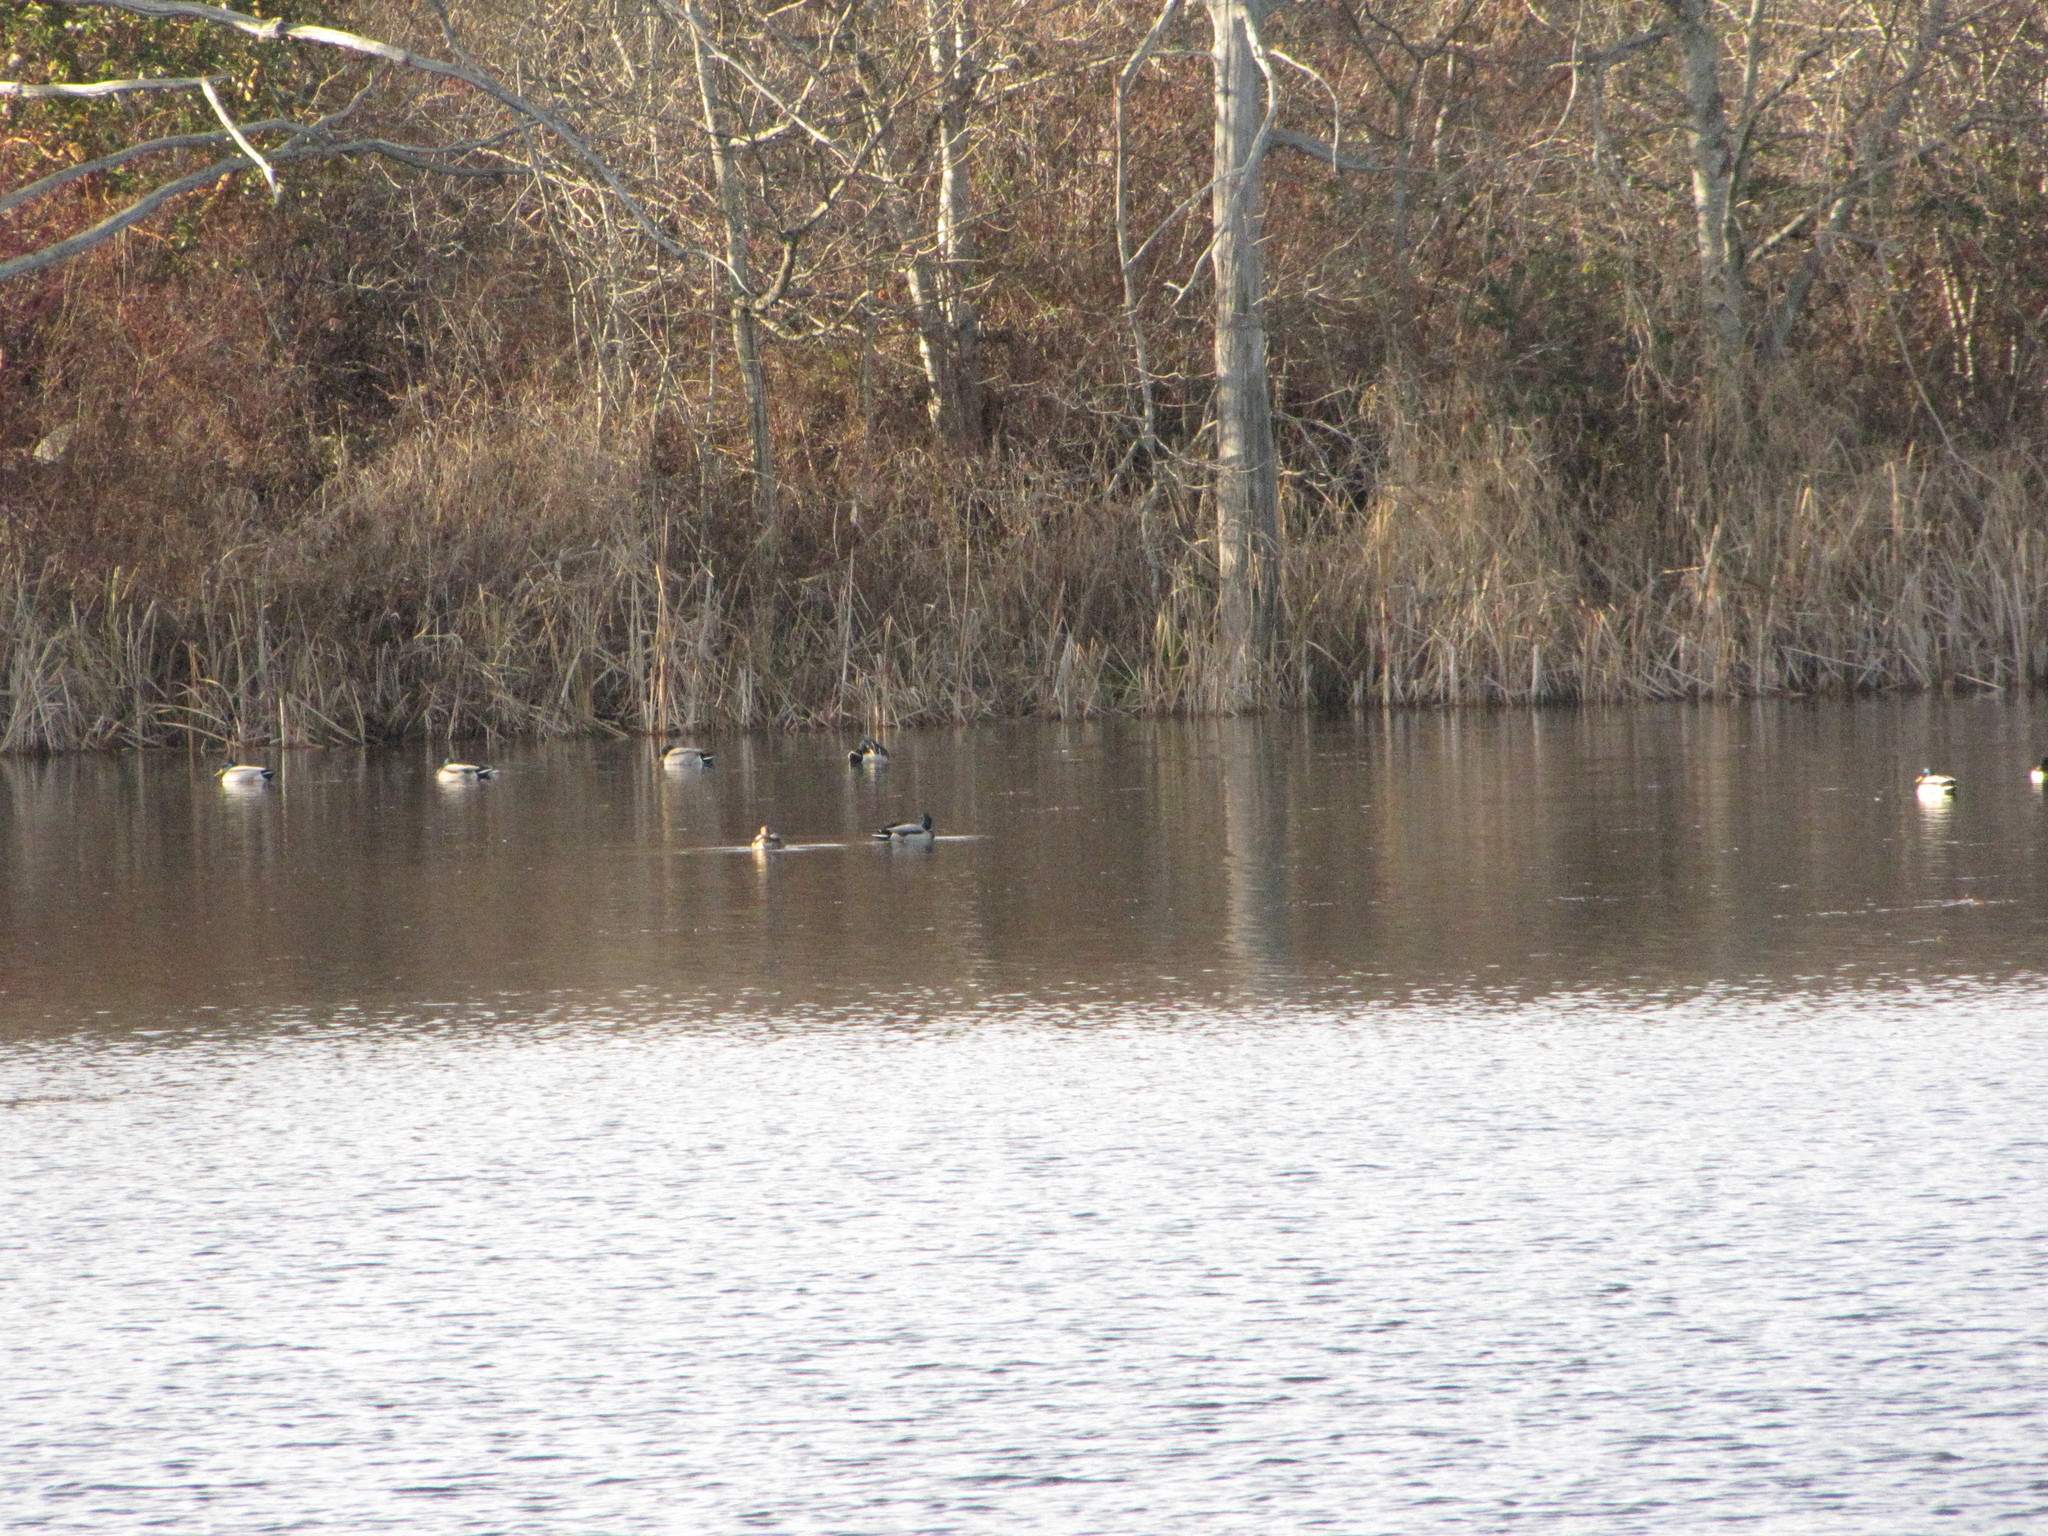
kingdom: Animalia
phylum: Chordata
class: Aves
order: Anseriformes
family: Anatidae
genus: Anas
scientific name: Anas platyrhynchos
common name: Mallard
